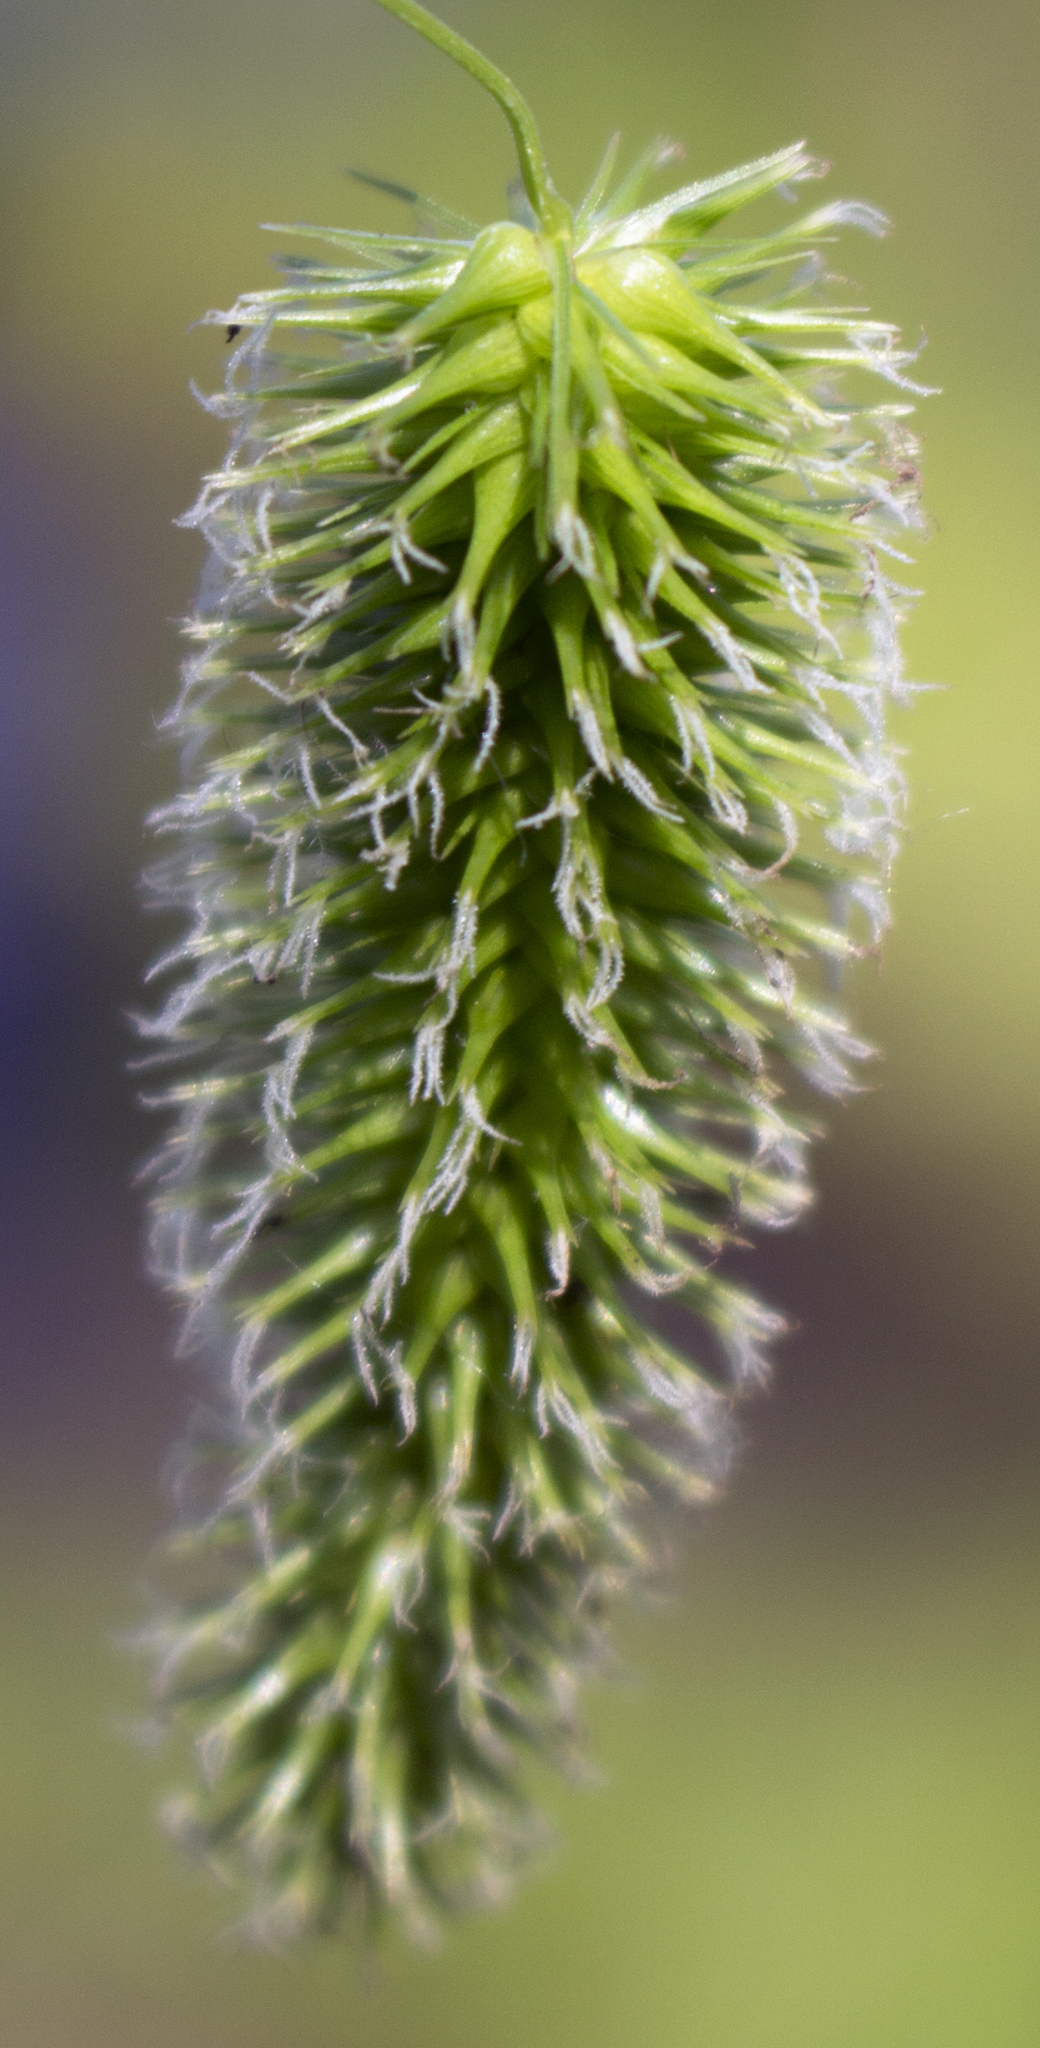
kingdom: Plantae
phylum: Tracheophyta
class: Liliopsida
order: Poales
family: Cyperaceae
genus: Carex
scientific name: Carex hystericina
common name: Bottlebrush sedge
